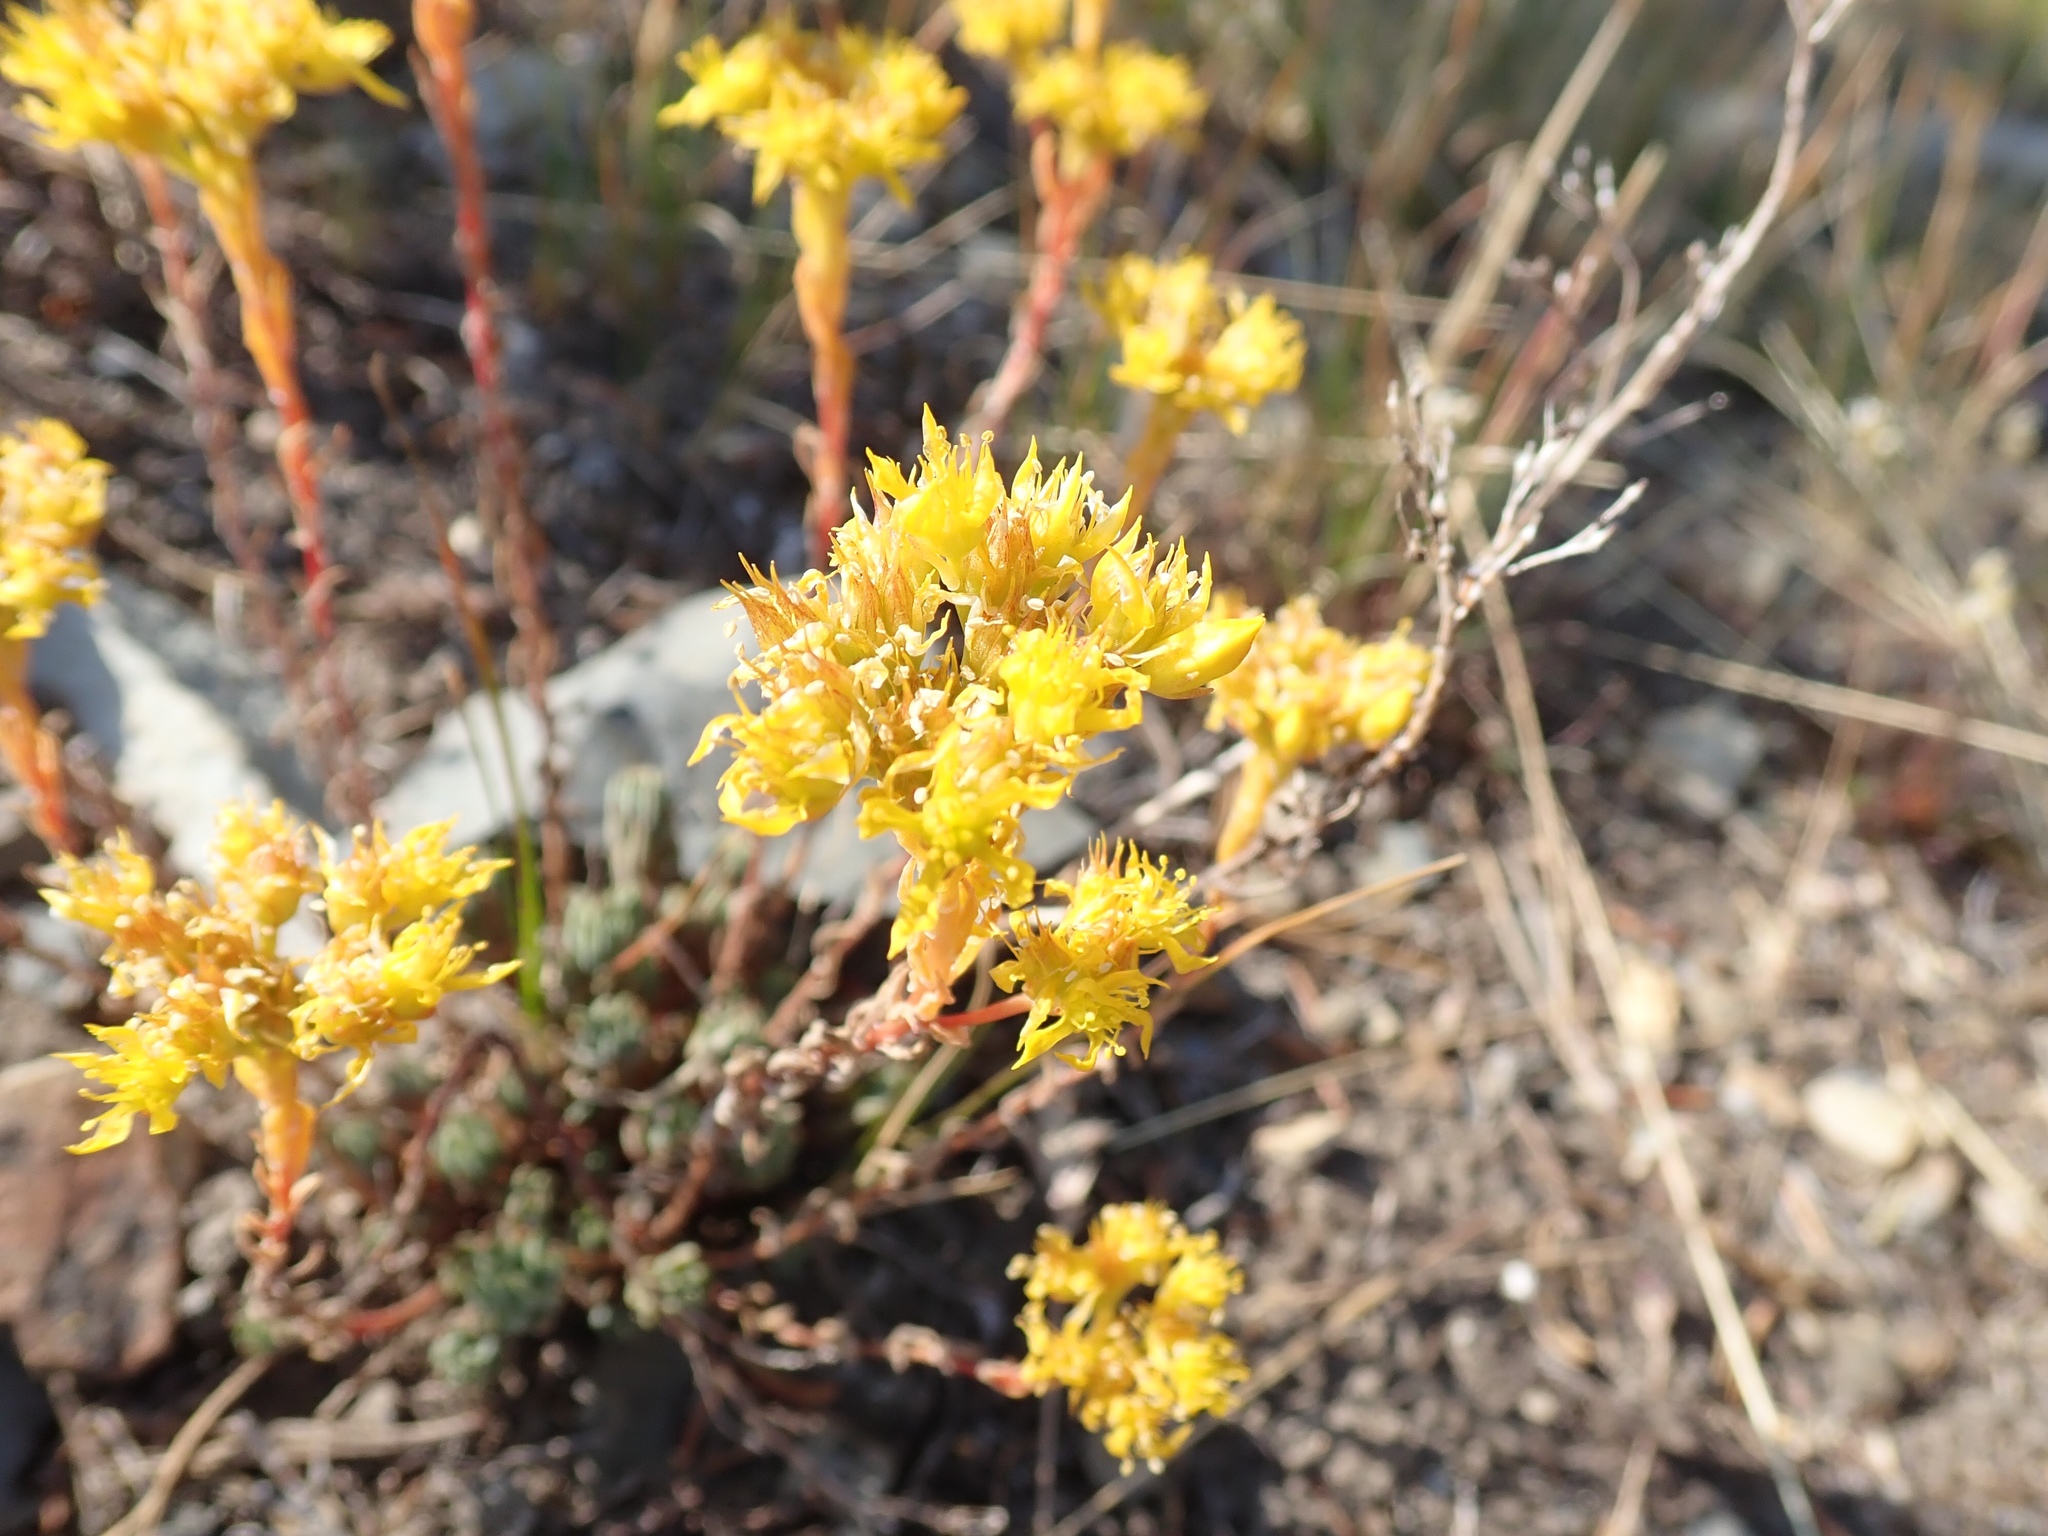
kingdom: Plantae
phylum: Tracheophyta
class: Magnoliopsida
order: Saxifragales
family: Crassulaceae
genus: Sedum
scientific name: Sedum lanceolatum
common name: Common stonecrop
